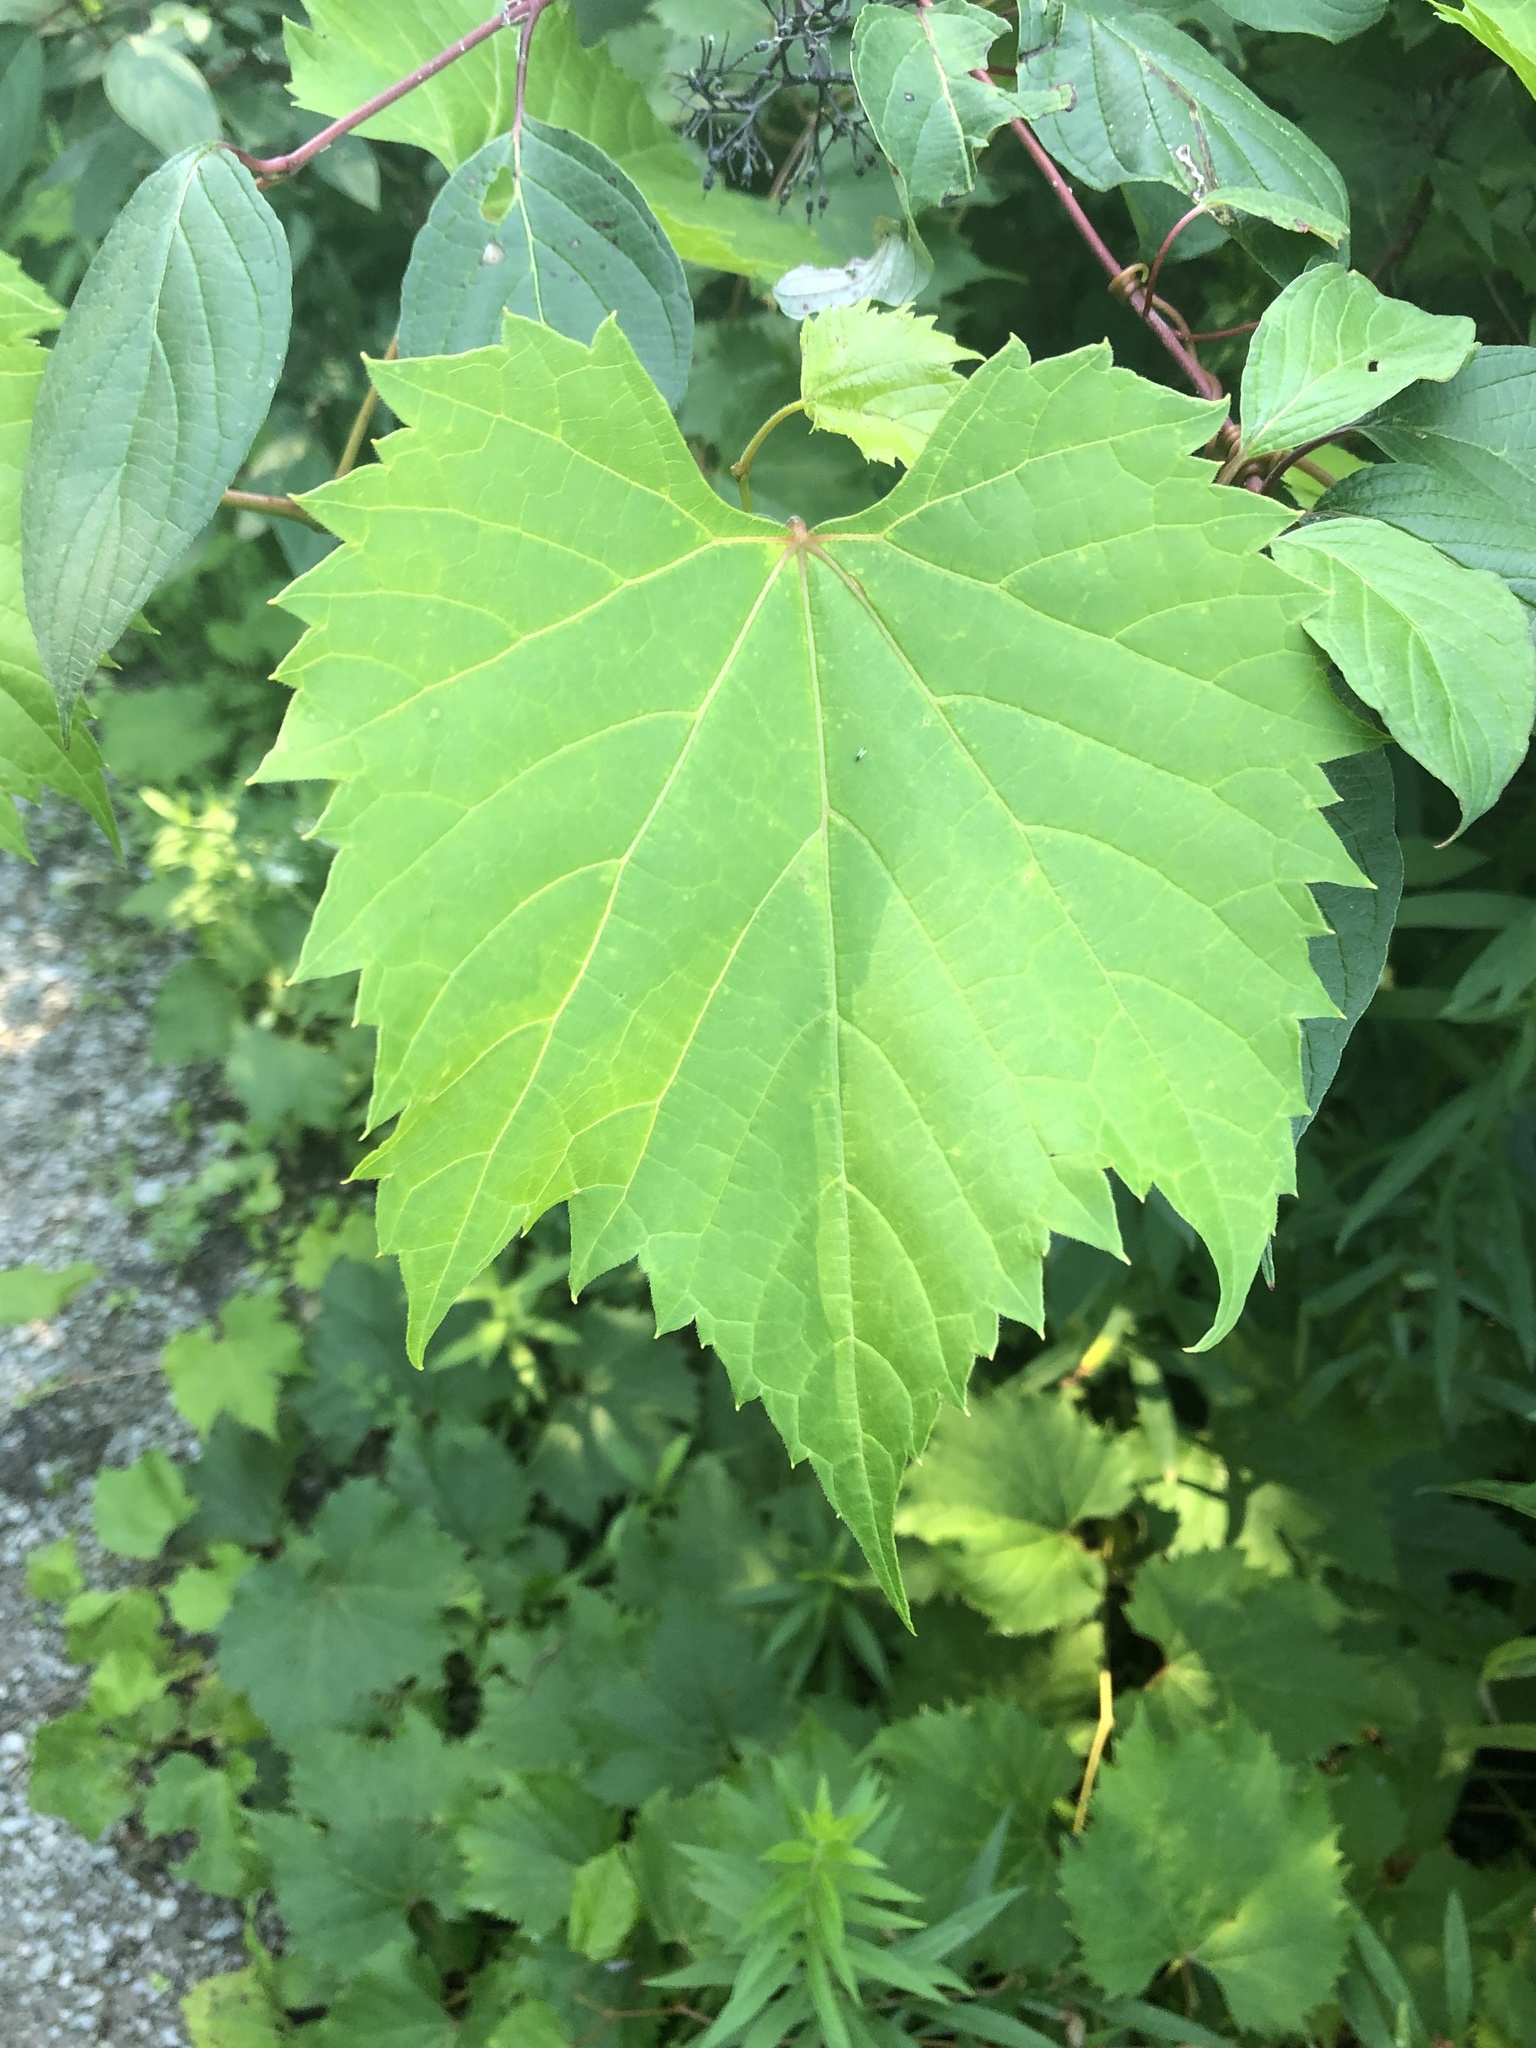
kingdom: Plantae
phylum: Tracheophyta
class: Magnoliopsida
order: Vitales
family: Vitaceae
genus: Vitis
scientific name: Vitis riparia
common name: Frost grape
